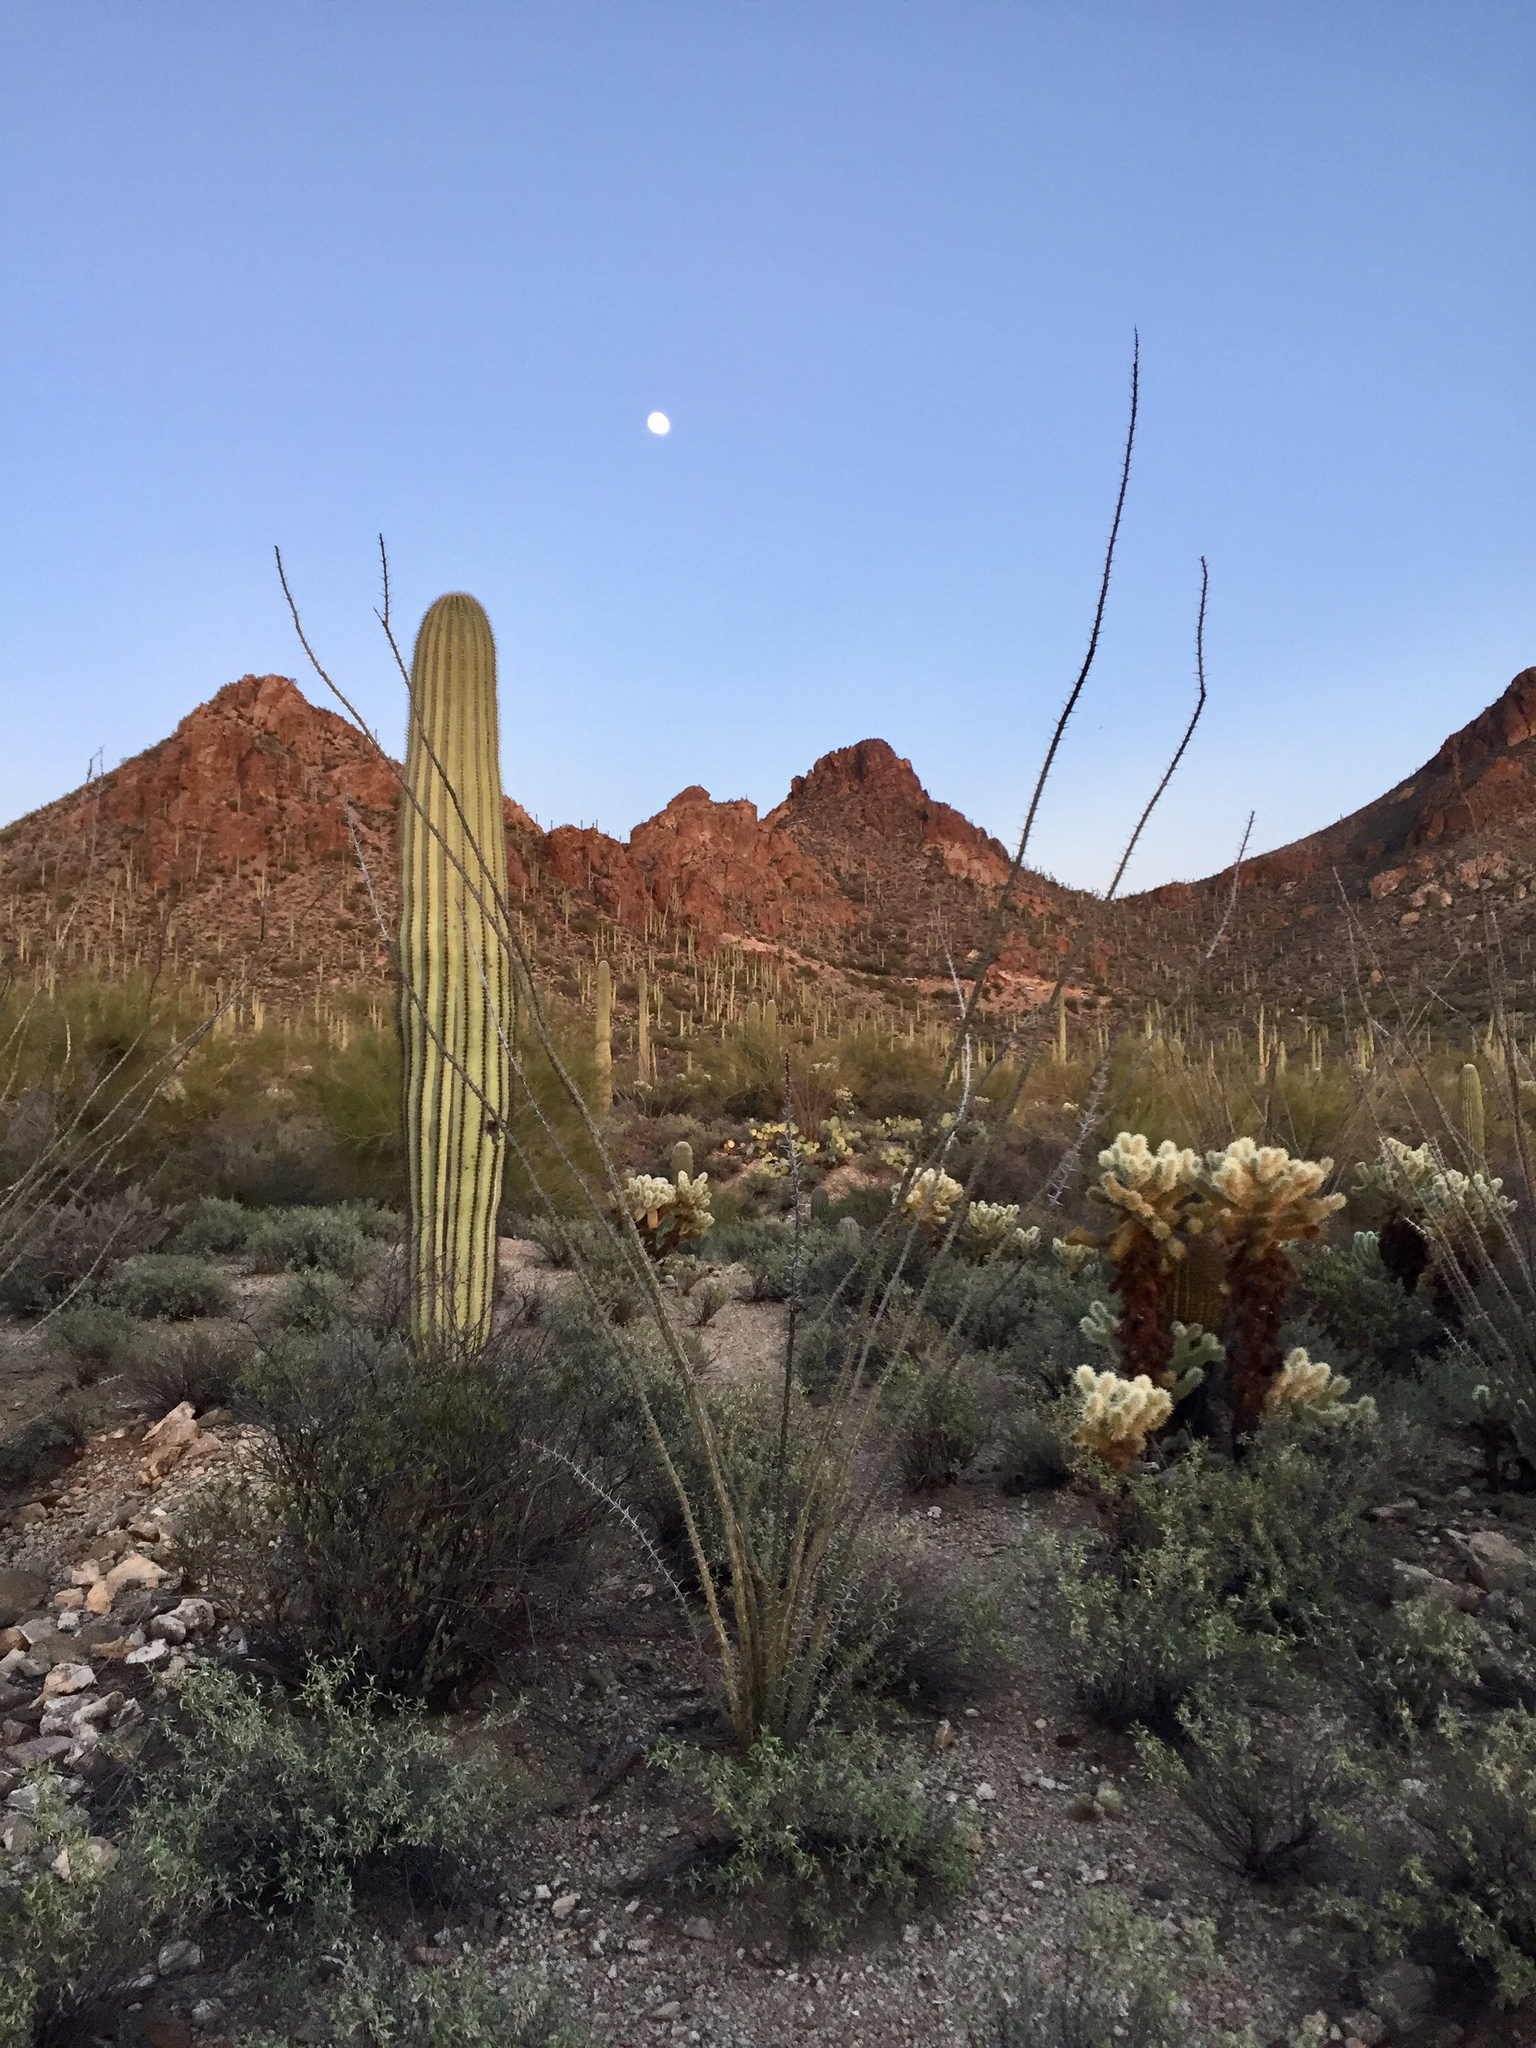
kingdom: Plantae
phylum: Tracheophyta
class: Magnoliopsida
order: Ericales
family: Fouquieriaceae
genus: Fouquieria
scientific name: Fouquieria splendens
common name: Vine-cactus
